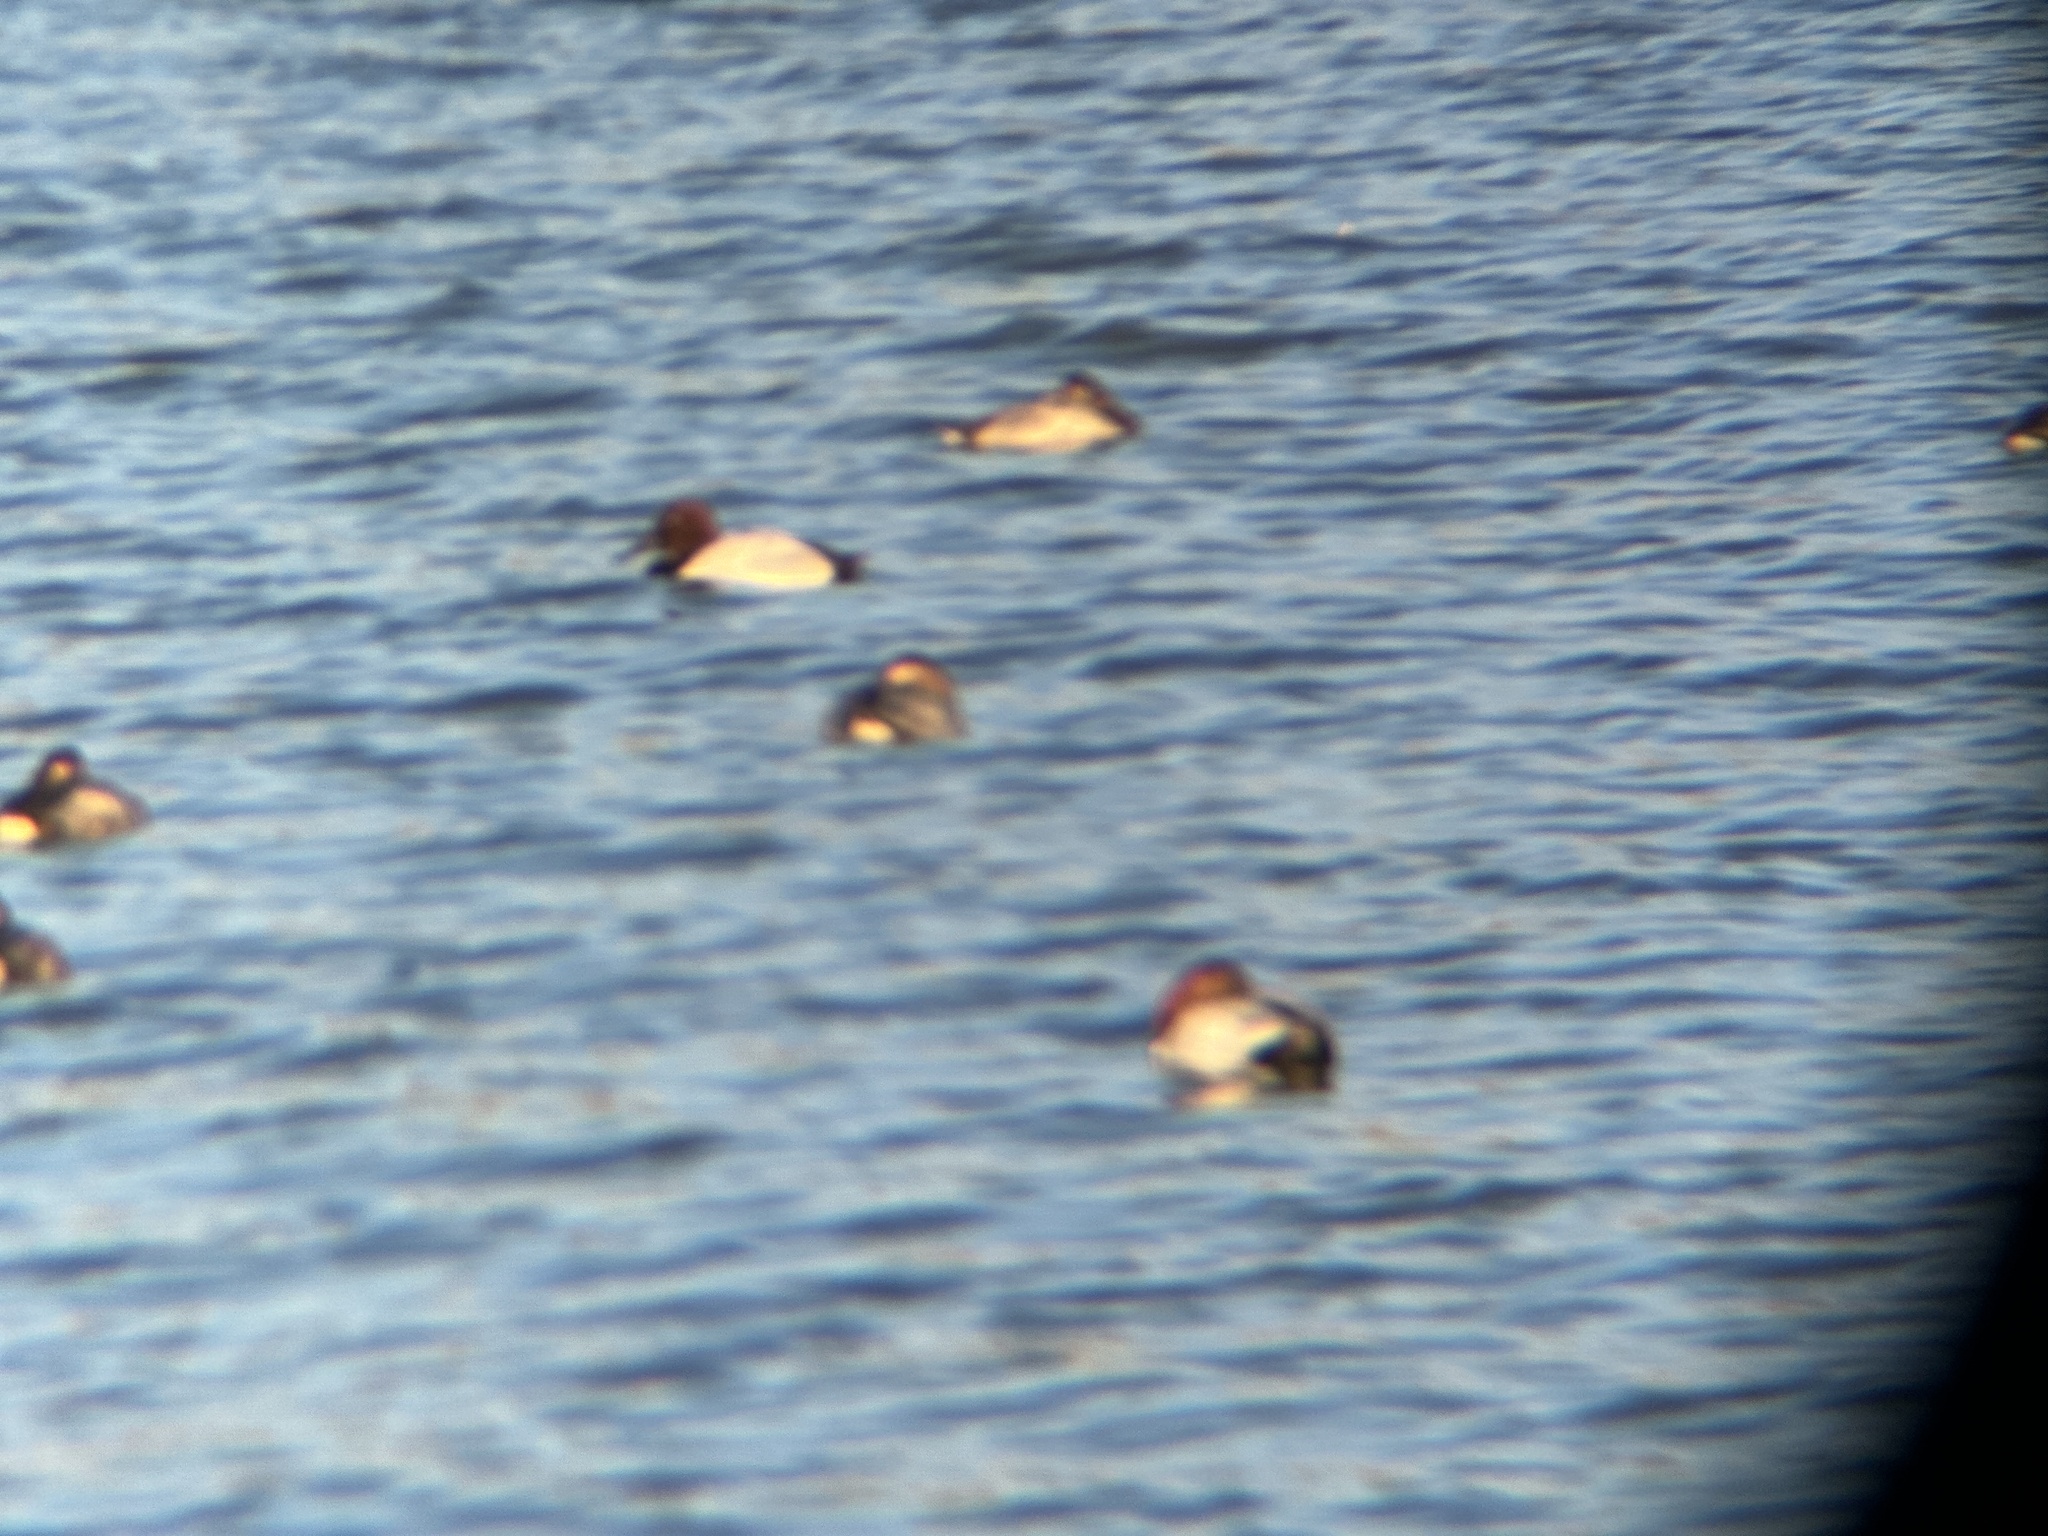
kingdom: Animalia
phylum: Chordata
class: Aves
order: Anseriformes
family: Anatidae
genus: Aythya
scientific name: Aythya valisineria
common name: Canvasback
